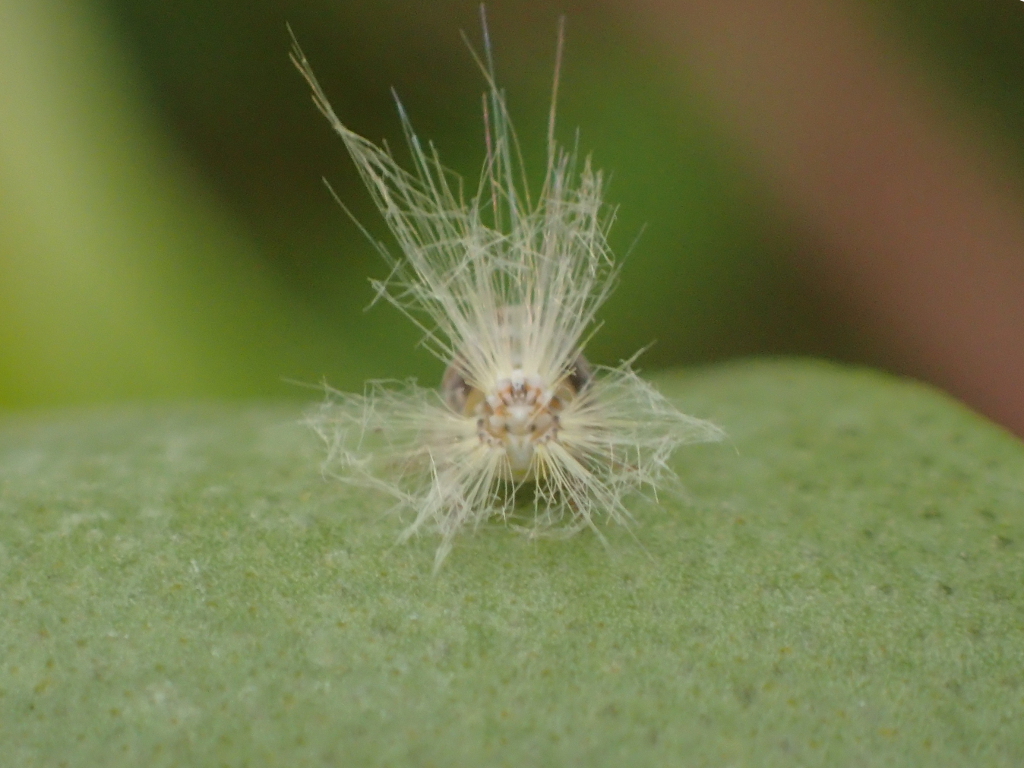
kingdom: Animalia
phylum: Arthropoda
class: Insecta
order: Hemiptera
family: Ricaniidae
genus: Scolypopa
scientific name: Scolypopa australis
